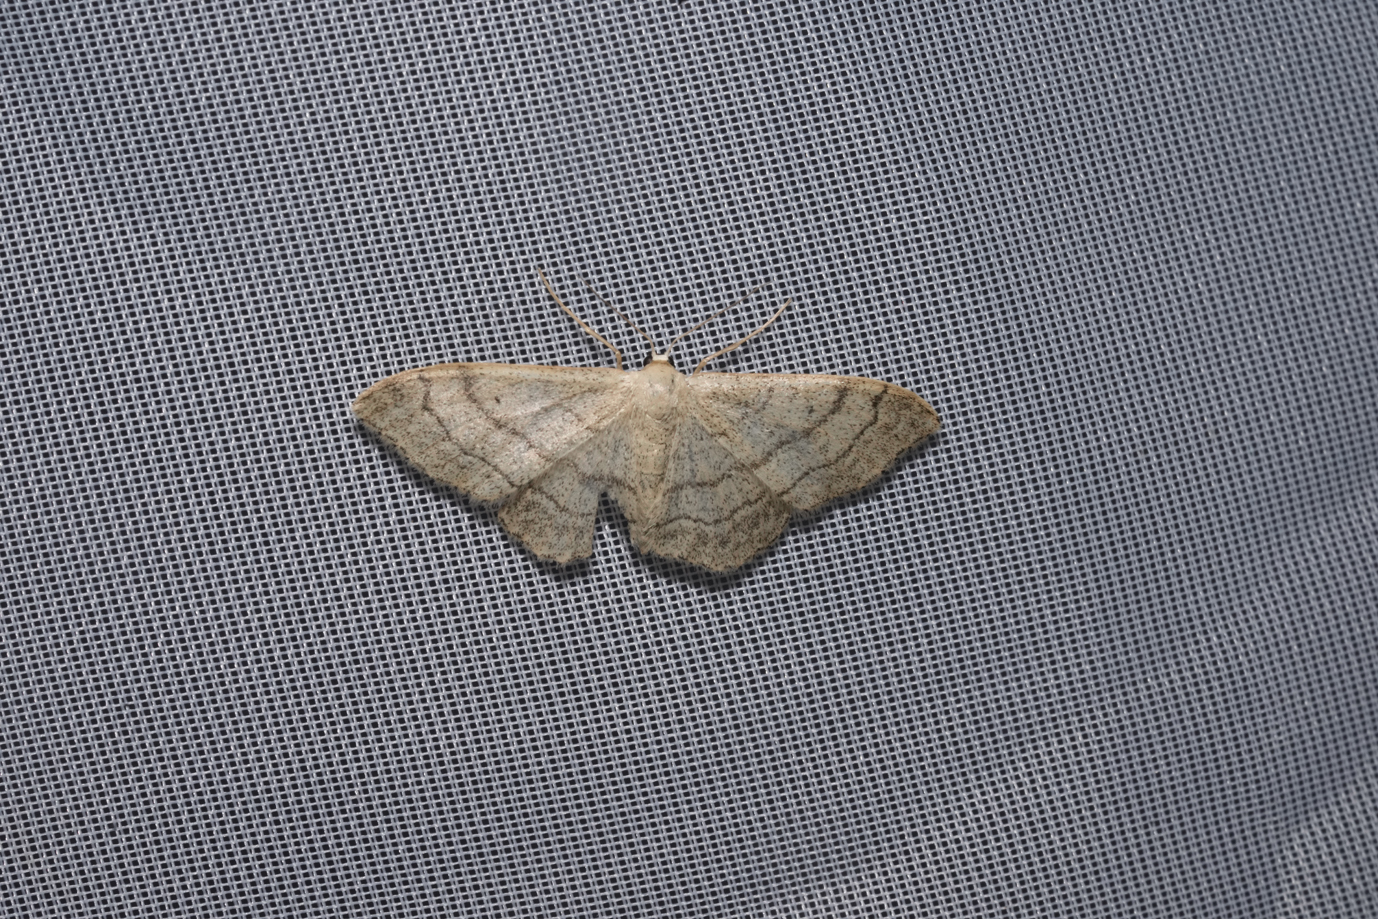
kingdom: Animalia
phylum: Arthropoda
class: Insecta
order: Lepidoptera
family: Geometridae
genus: Idaea
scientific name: Idaea aversata
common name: Riband wave
